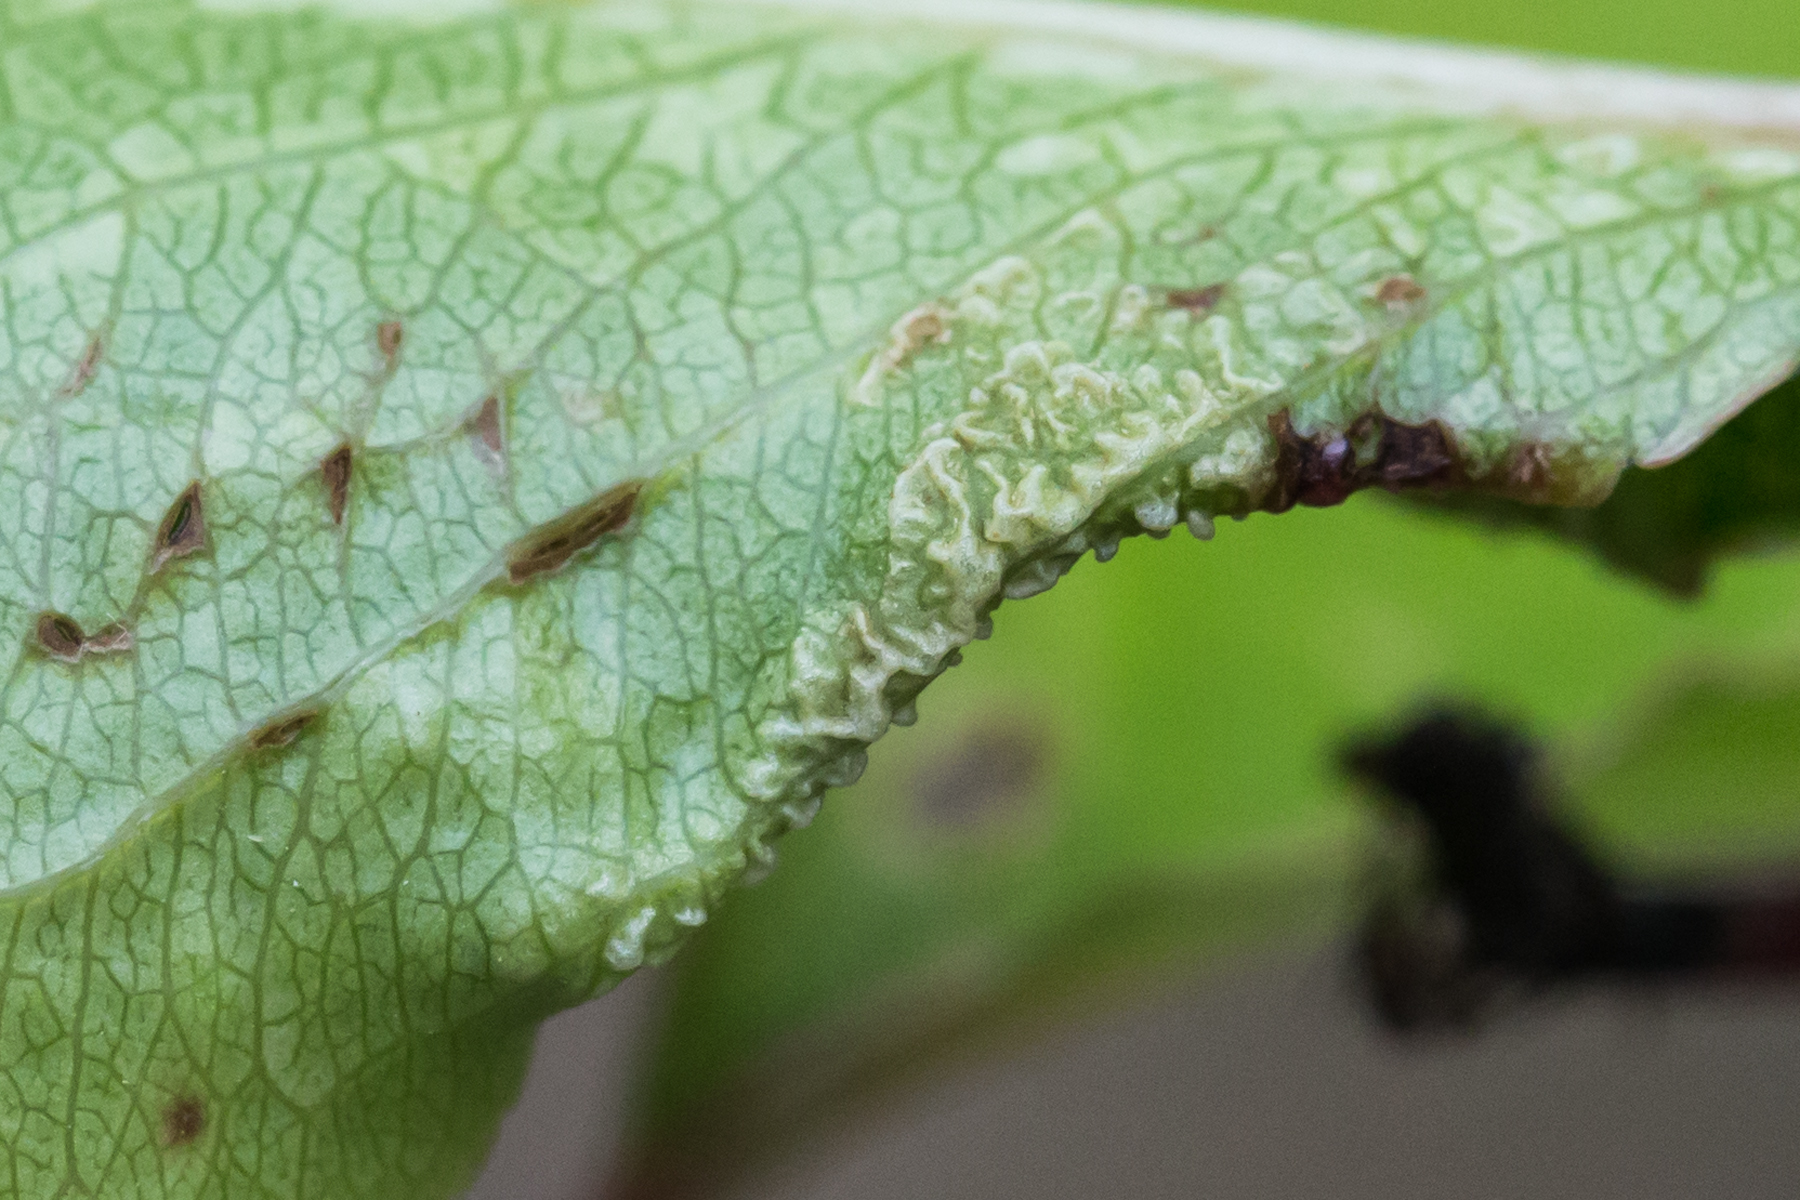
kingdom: Animalia
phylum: Arthropoda
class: Arachnida
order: Trombidiformes
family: Eriophyidae
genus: Eriophyes
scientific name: Eriophyes marginemtorquens
